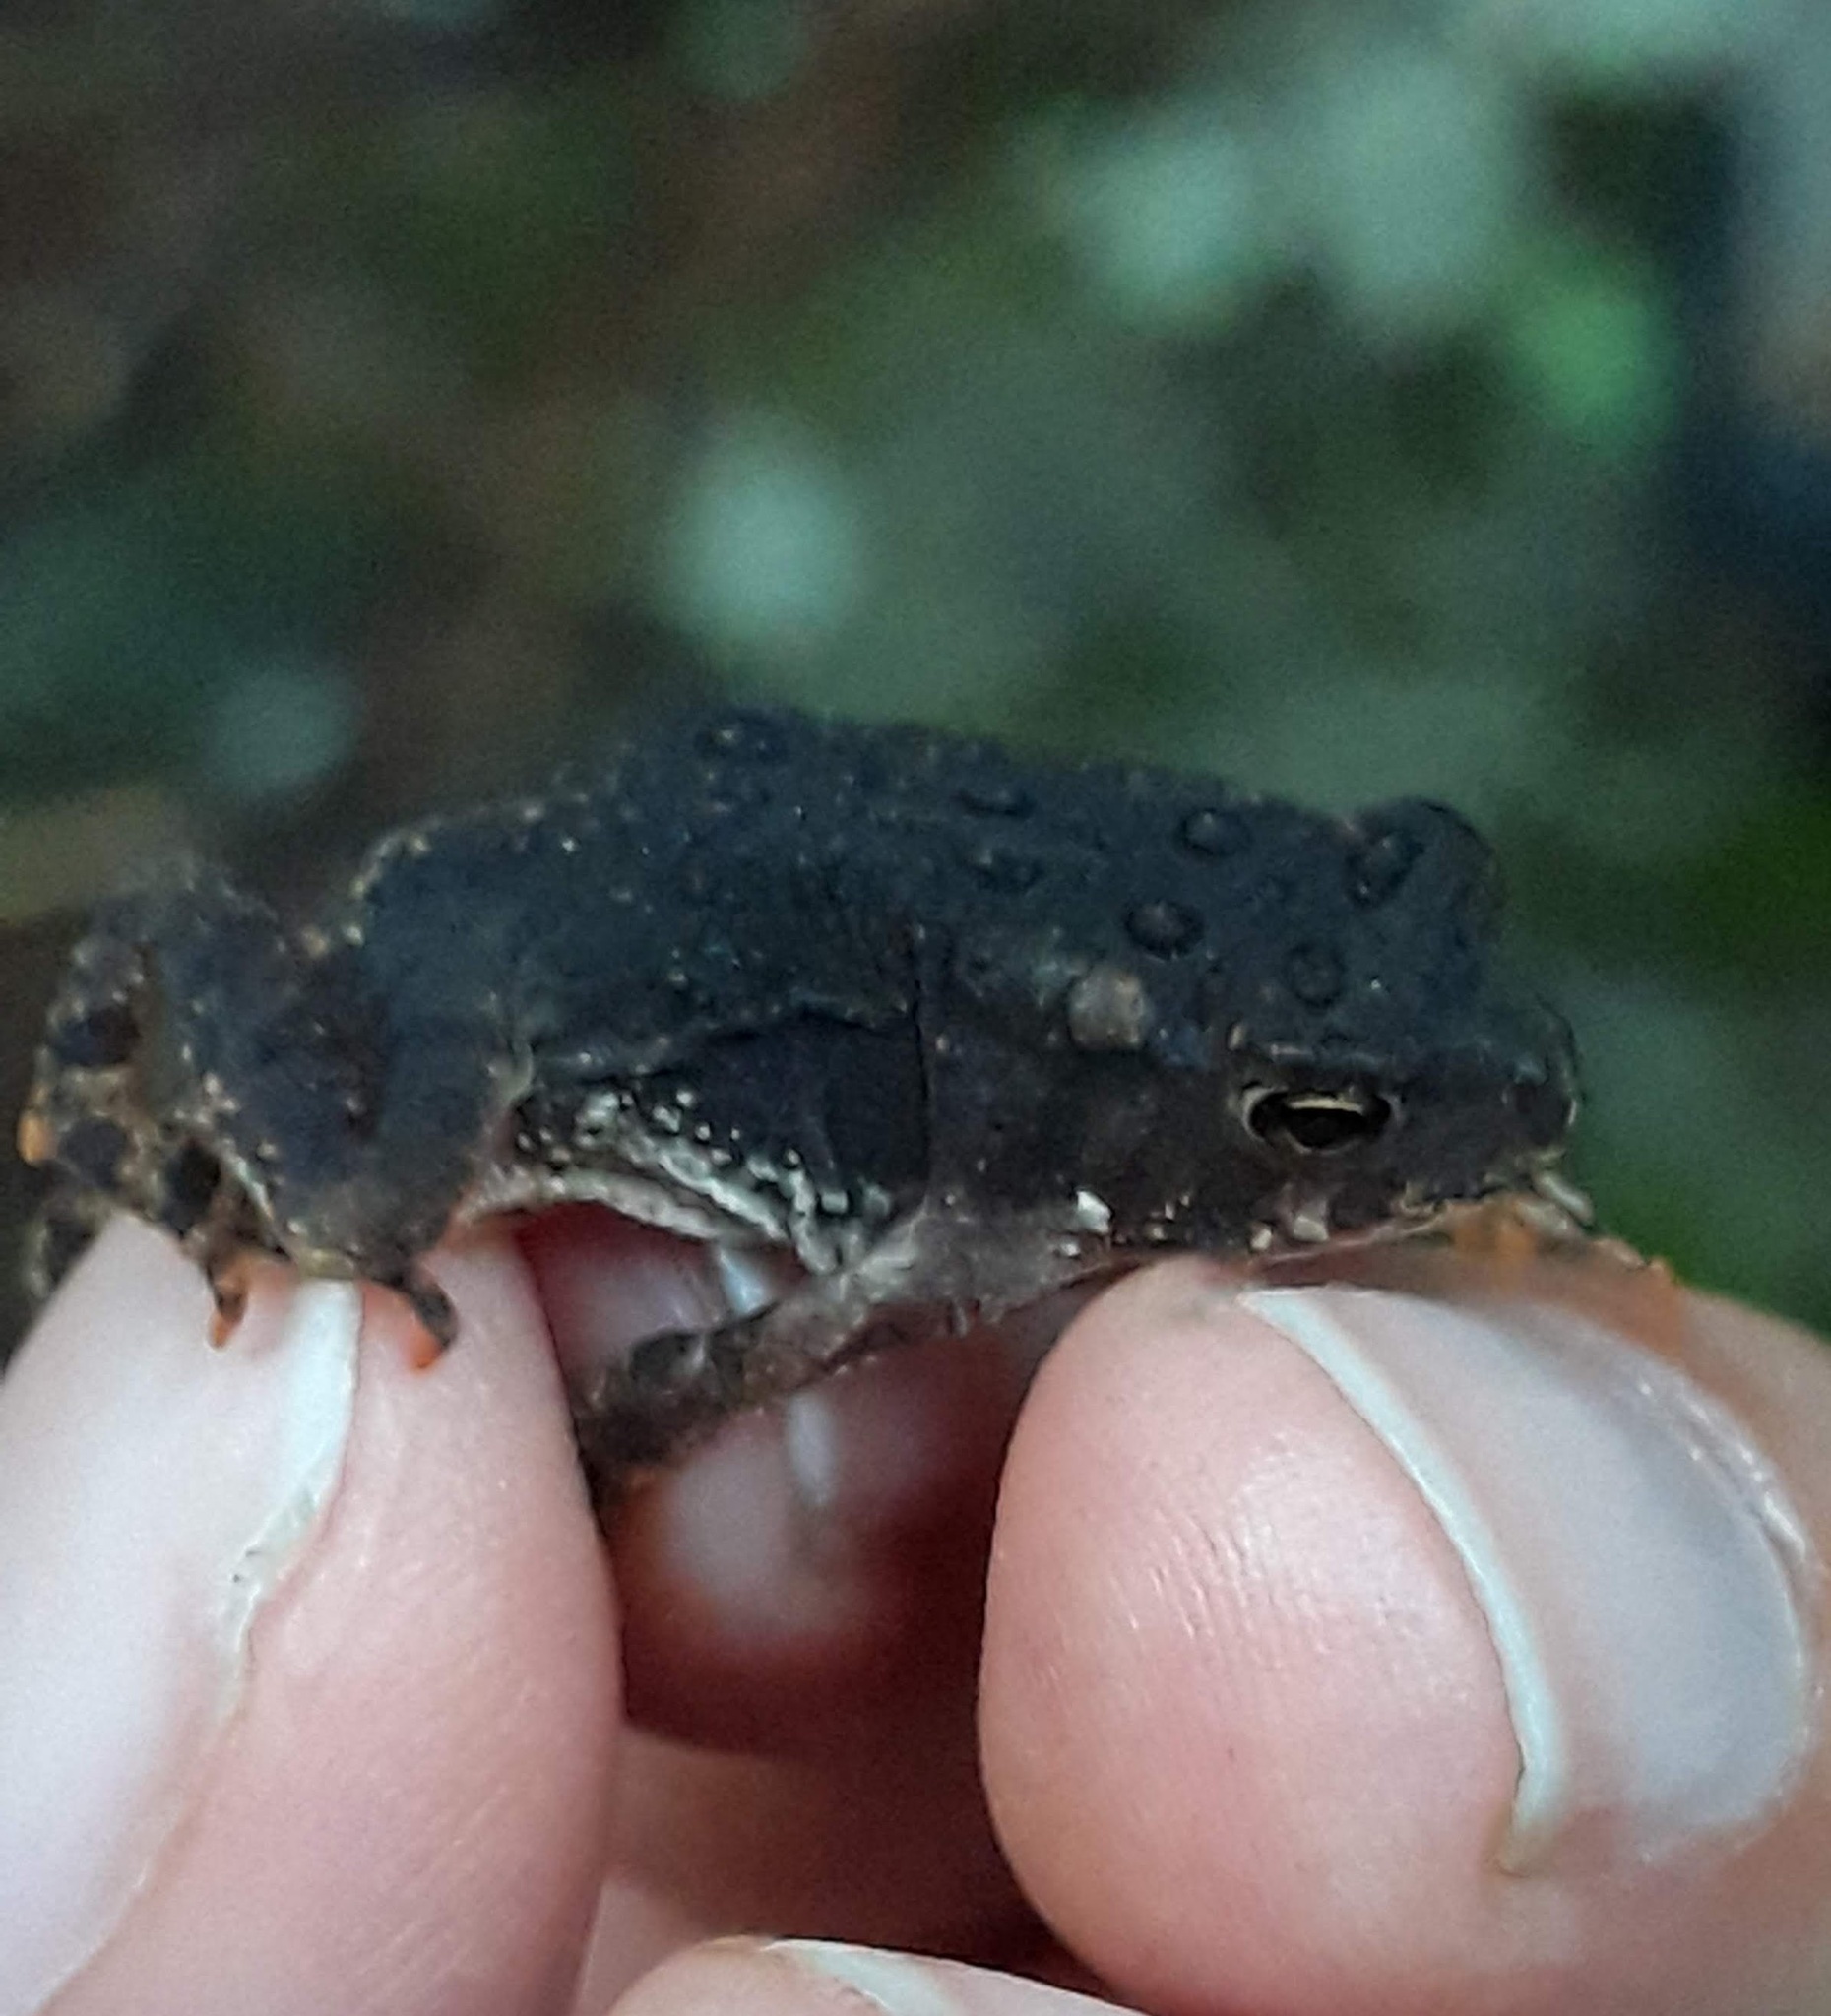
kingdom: Animalia
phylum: Chordata
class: Amphibia
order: Anura
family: Bufonidae
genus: Anaxyrus
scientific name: Anaxyrus americanus
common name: American toad
